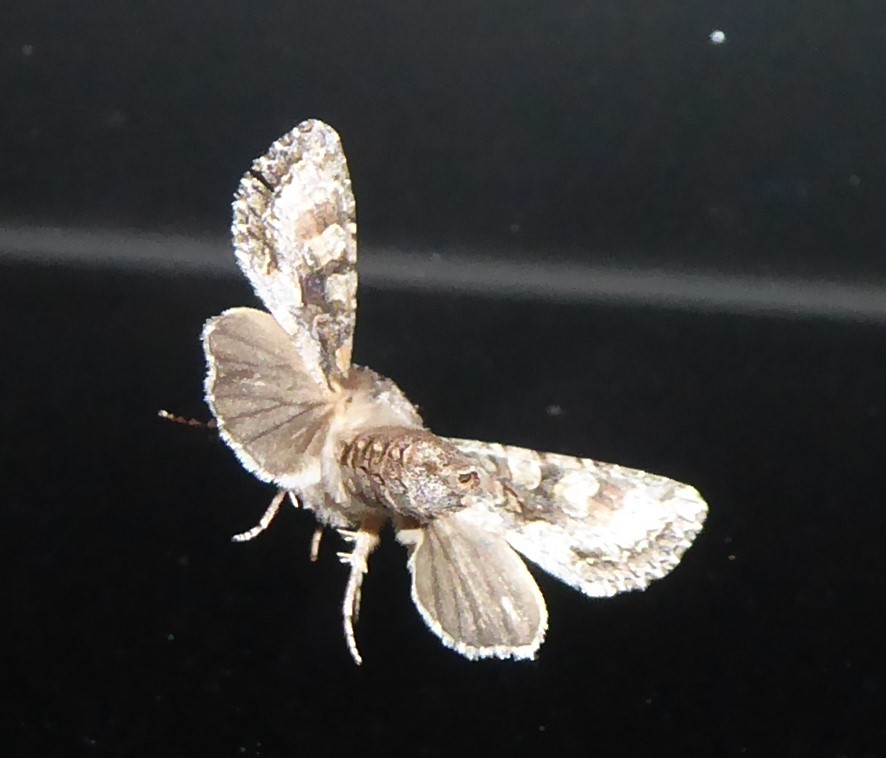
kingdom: Animalia
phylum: Arthropoda
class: Insecta
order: Lepidoptera
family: Noctuidae
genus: Ichneutica
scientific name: Ichneutica mutans
